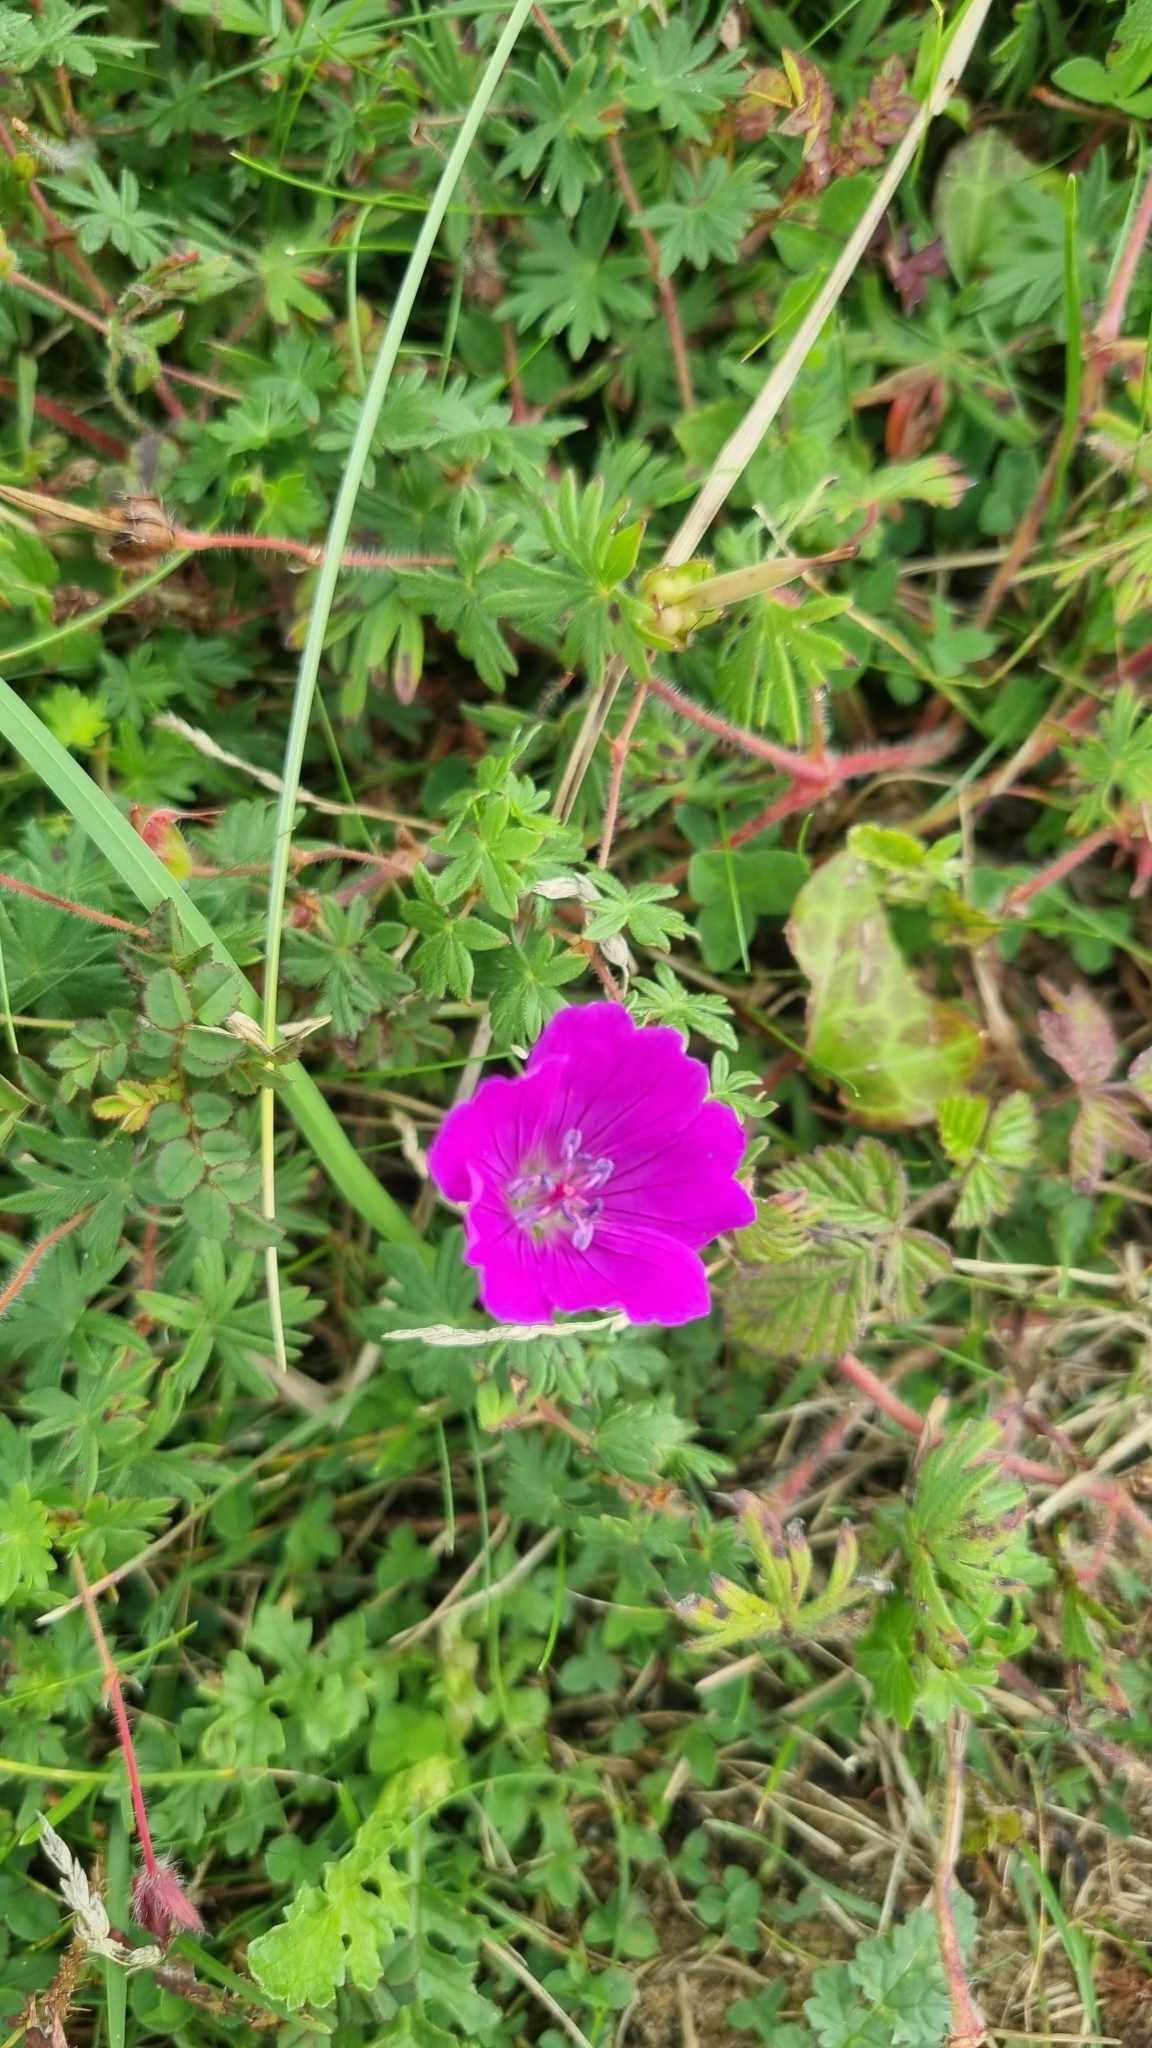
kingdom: Plantae
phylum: Tracheophyta
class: Magnoliopsida
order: Geraniales
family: Geraniaceae
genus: Geranium
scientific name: Geranium sanguineum
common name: Bloody crane's-bill
